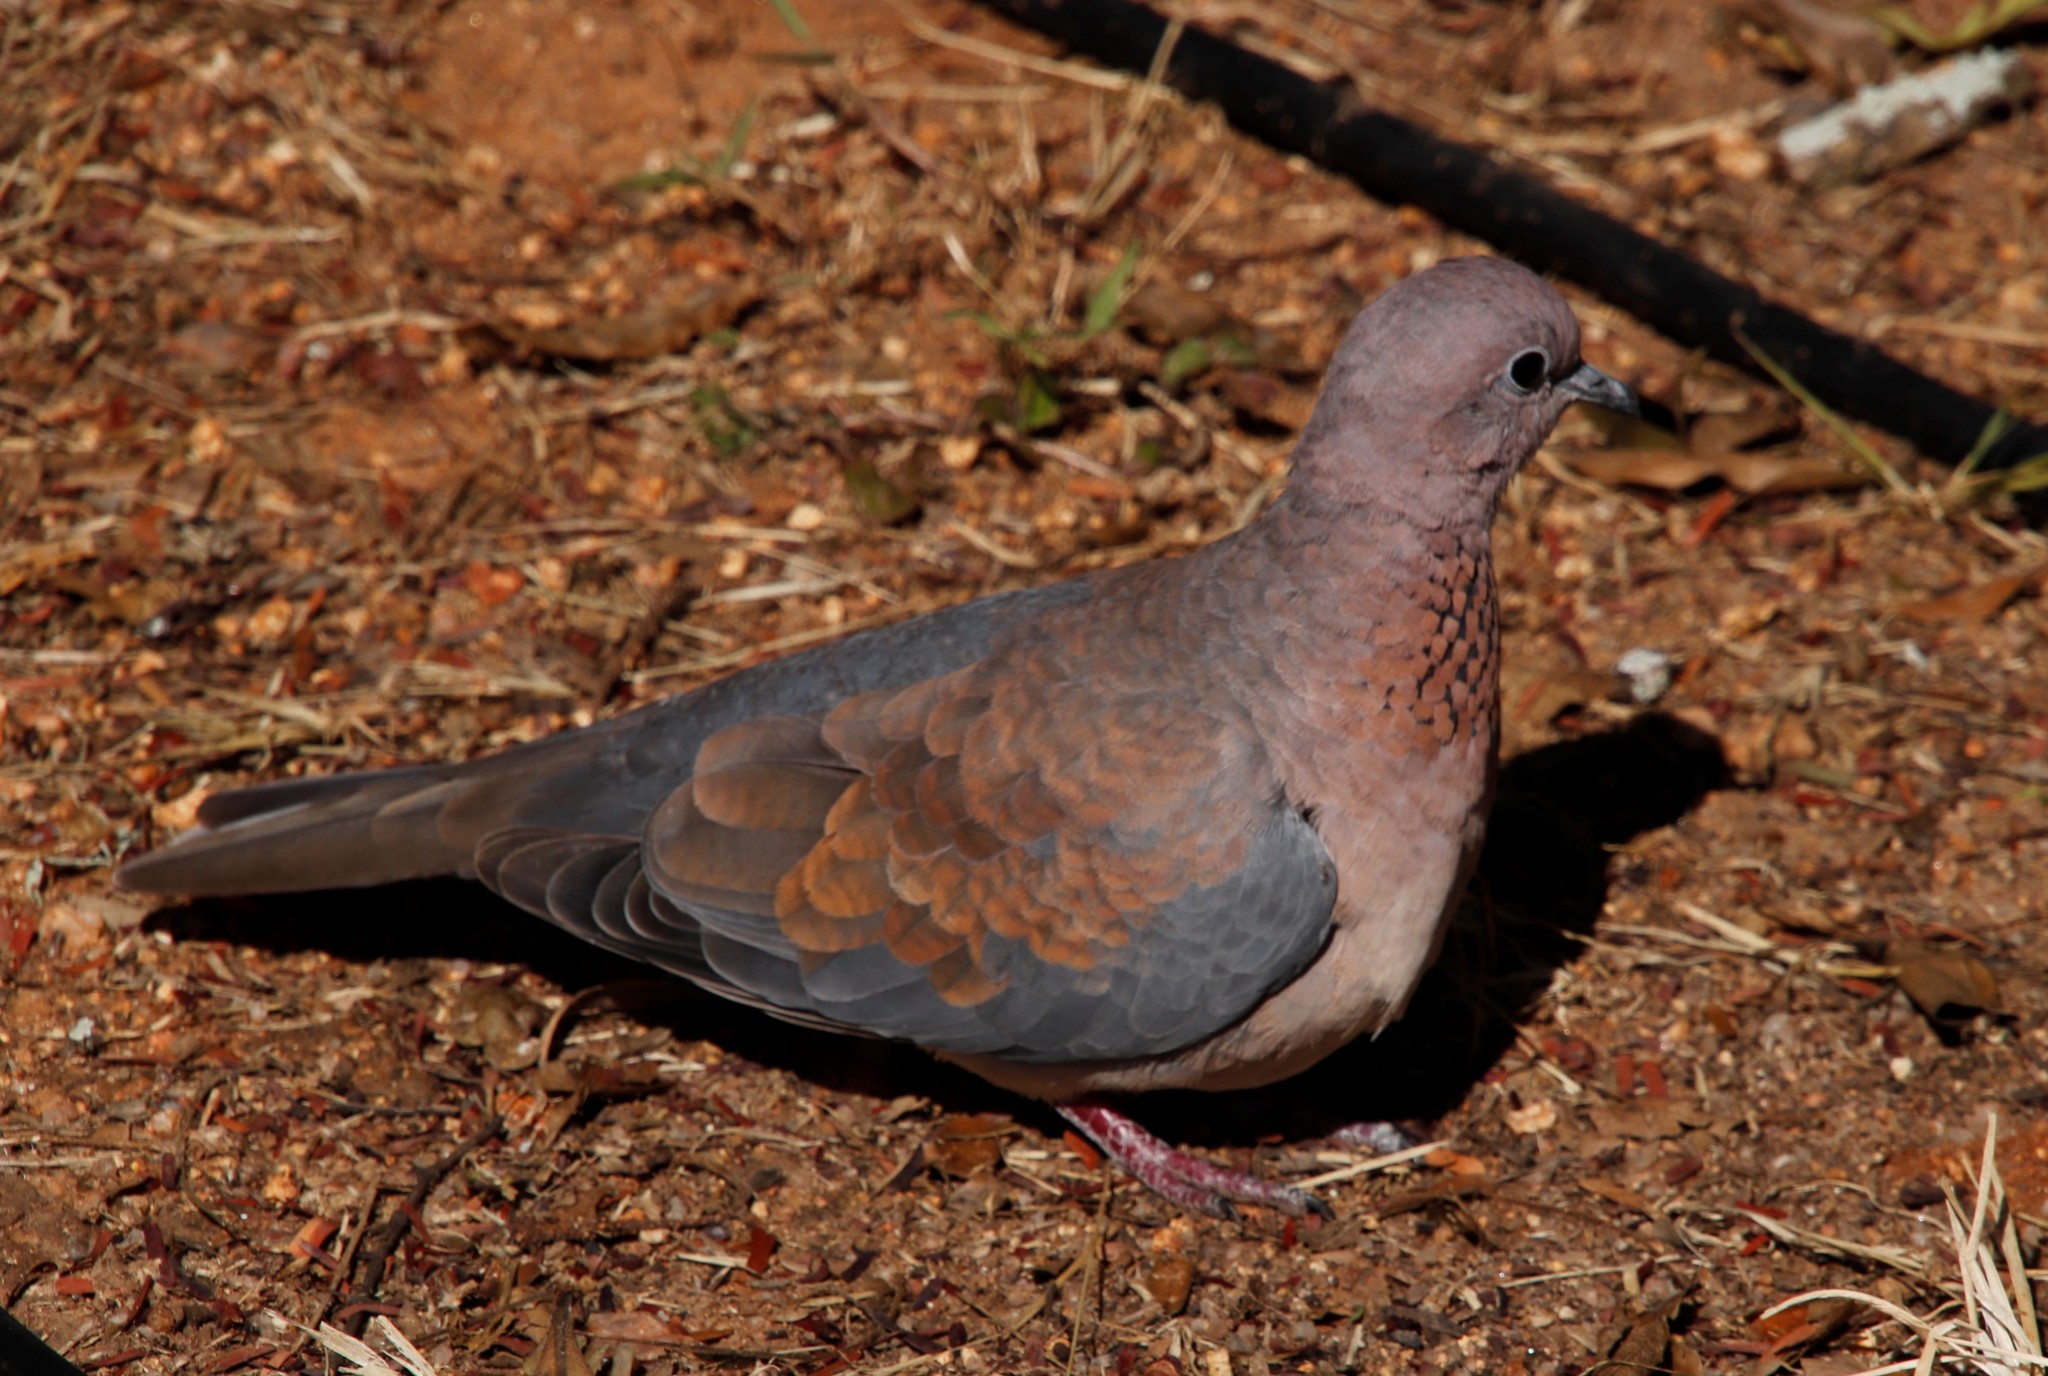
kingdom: Animalia
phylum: Chordata
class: Aves
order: Columbiformes
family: Columbidae
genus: Spilopelia
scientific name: Spilopelia senegalensis
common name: Laughing dove
